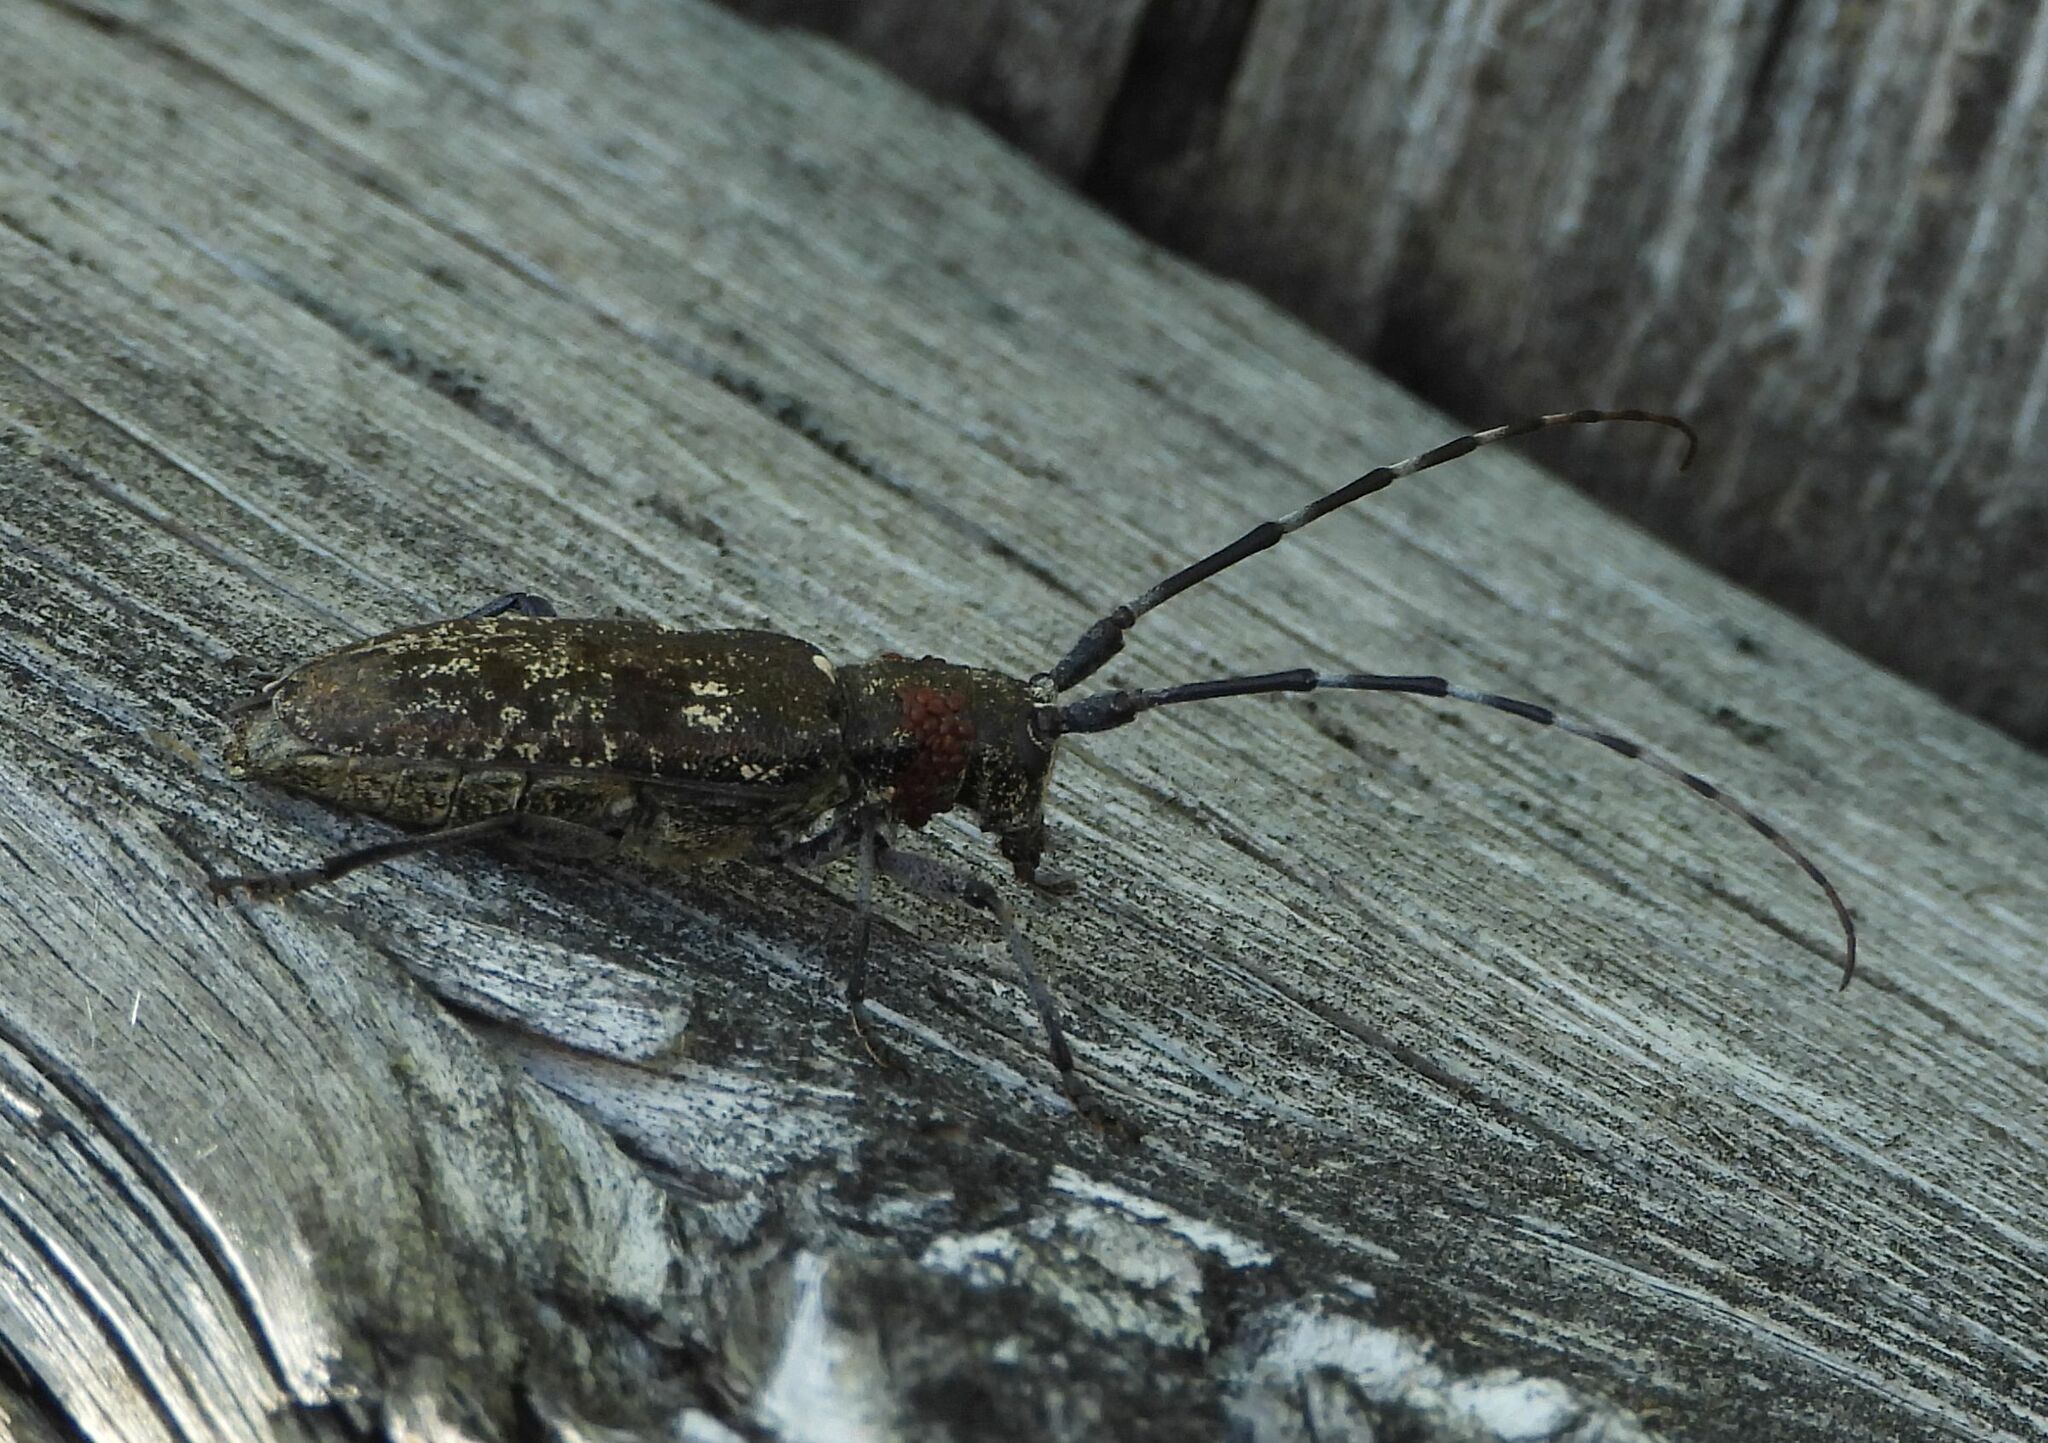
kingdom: Animalia
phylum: Arthropoda
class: Insecta
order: Coleoptera
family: Cerambycidae
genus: Monochamus
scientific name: Monochamus scutellatus
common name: White-spotted sawyer beetle
